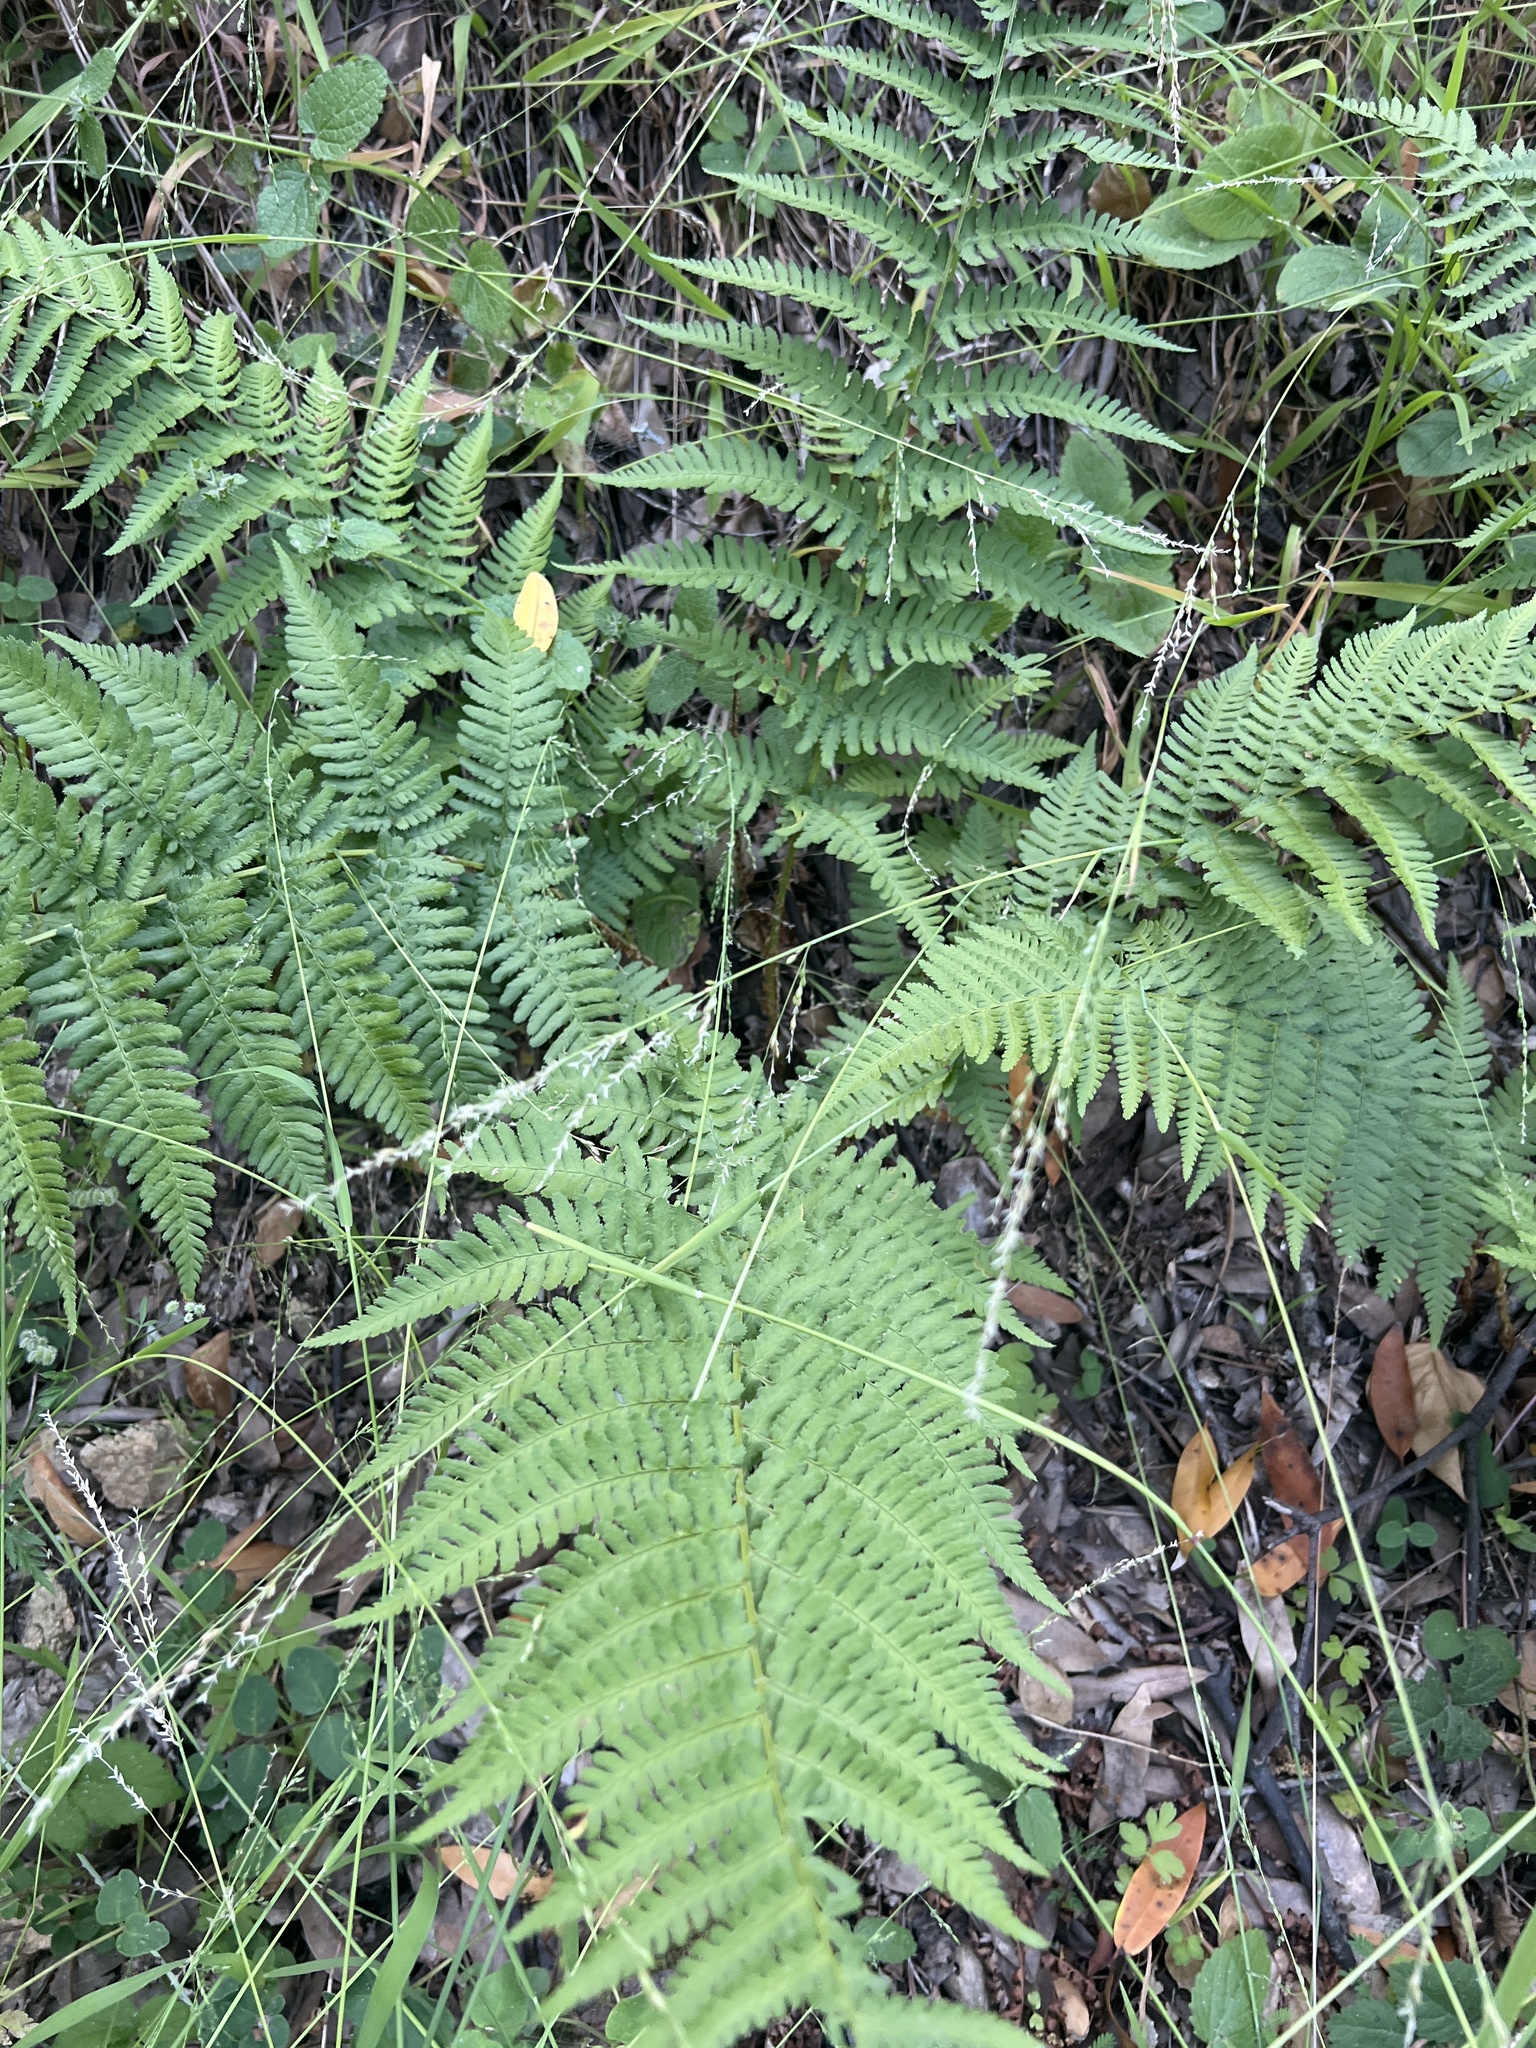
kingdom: Plantae
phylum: Tracheophyta
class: Polypodiopsida
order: Polypodiales
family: Dryopteridaceae
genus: Dryopteris
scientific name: Dryopteris arguta
